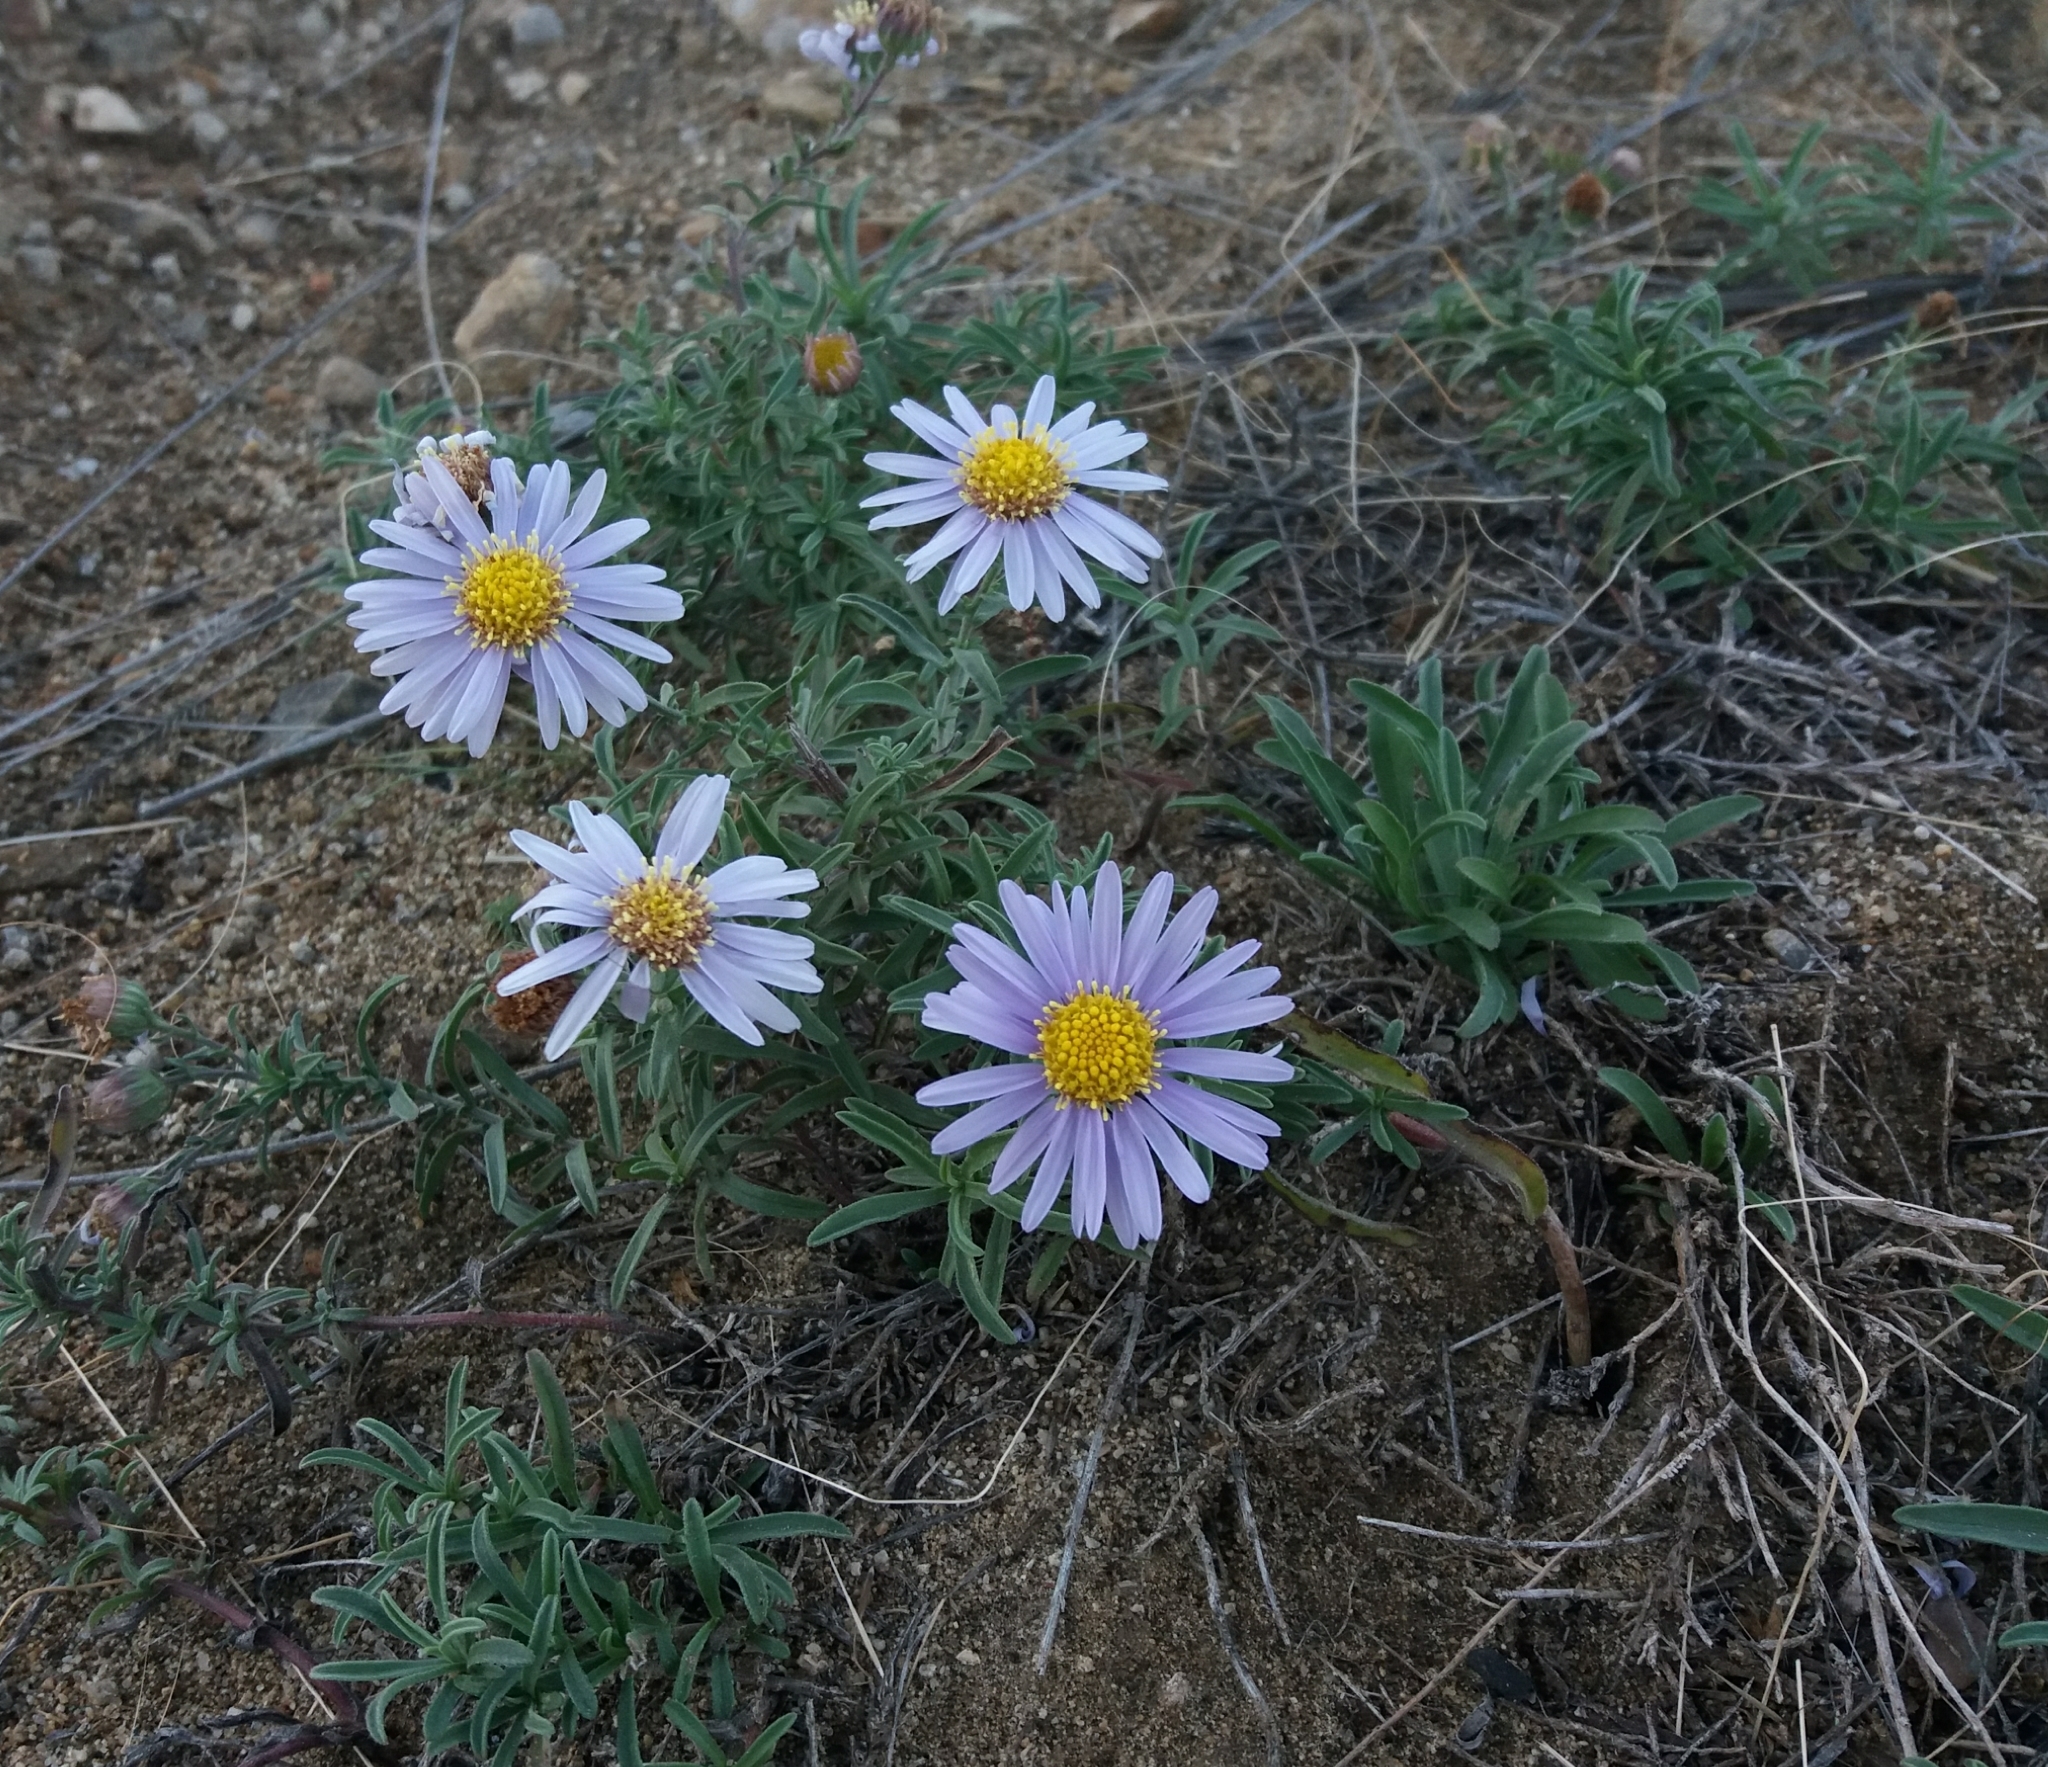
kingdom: Plantae
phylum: Tracheophyta
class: Magnoliopsida
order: Asterales
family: Asteraceae
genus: Heteropappus
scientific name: Heteropappus altaicus
